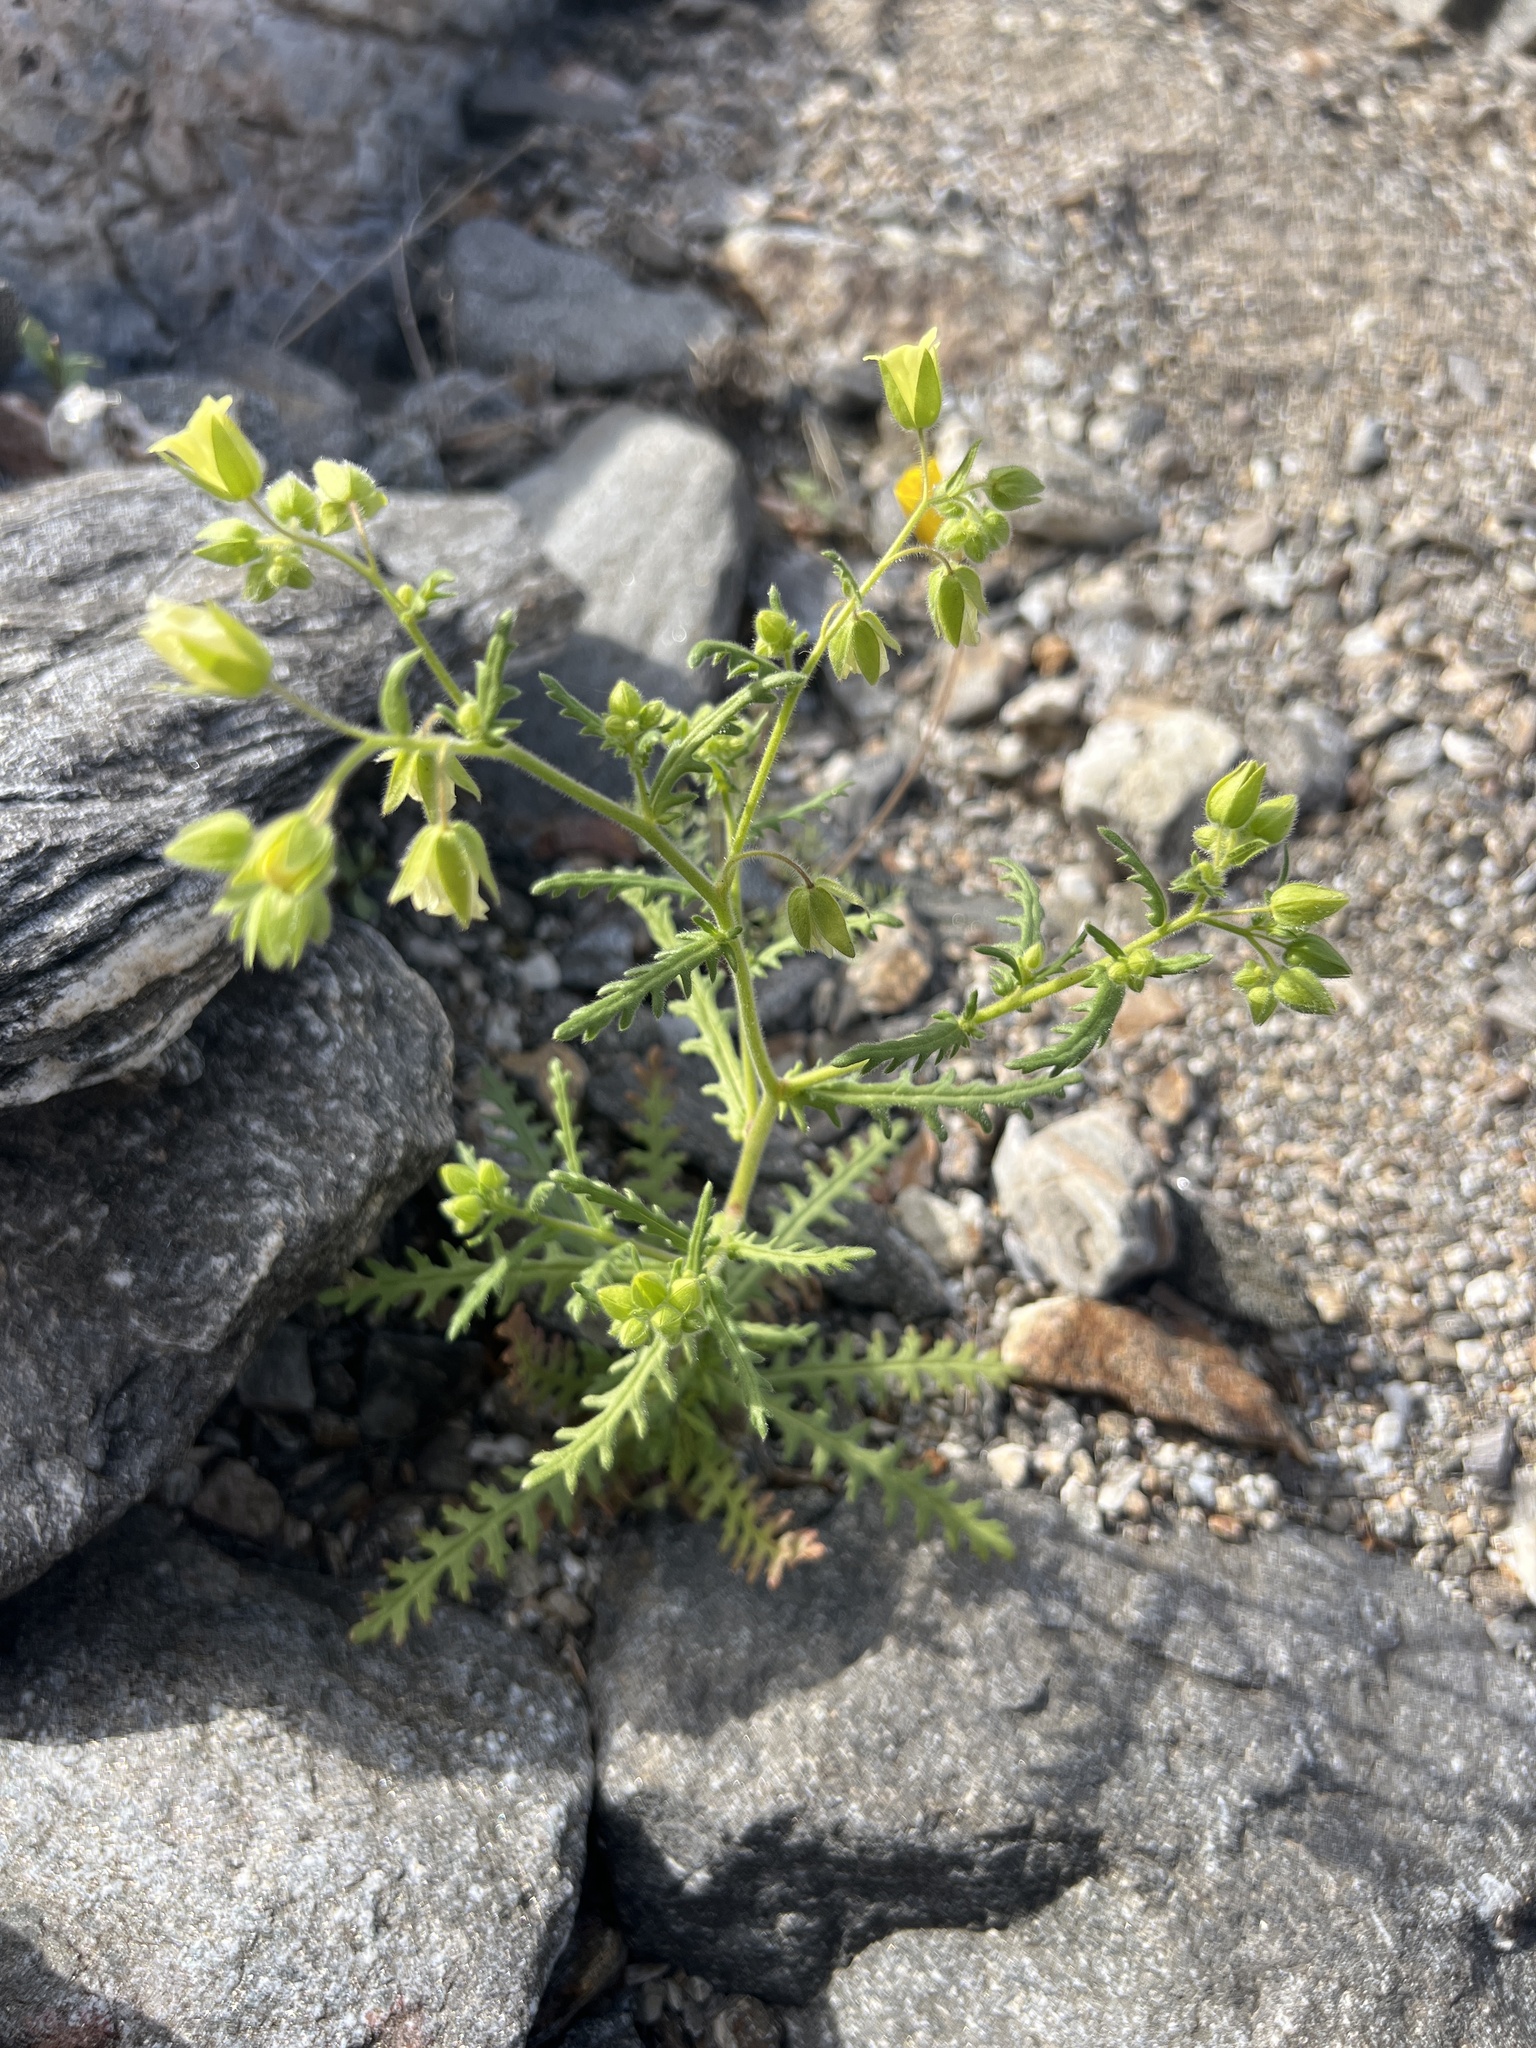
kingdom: Plantae
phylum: Tracheophyta
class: Magnoliopsida
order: Boraginales
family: Hydrophyllaceae
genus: Emmenanthe
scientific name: Emmenanthe penduliflora
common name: Whispering-bells
